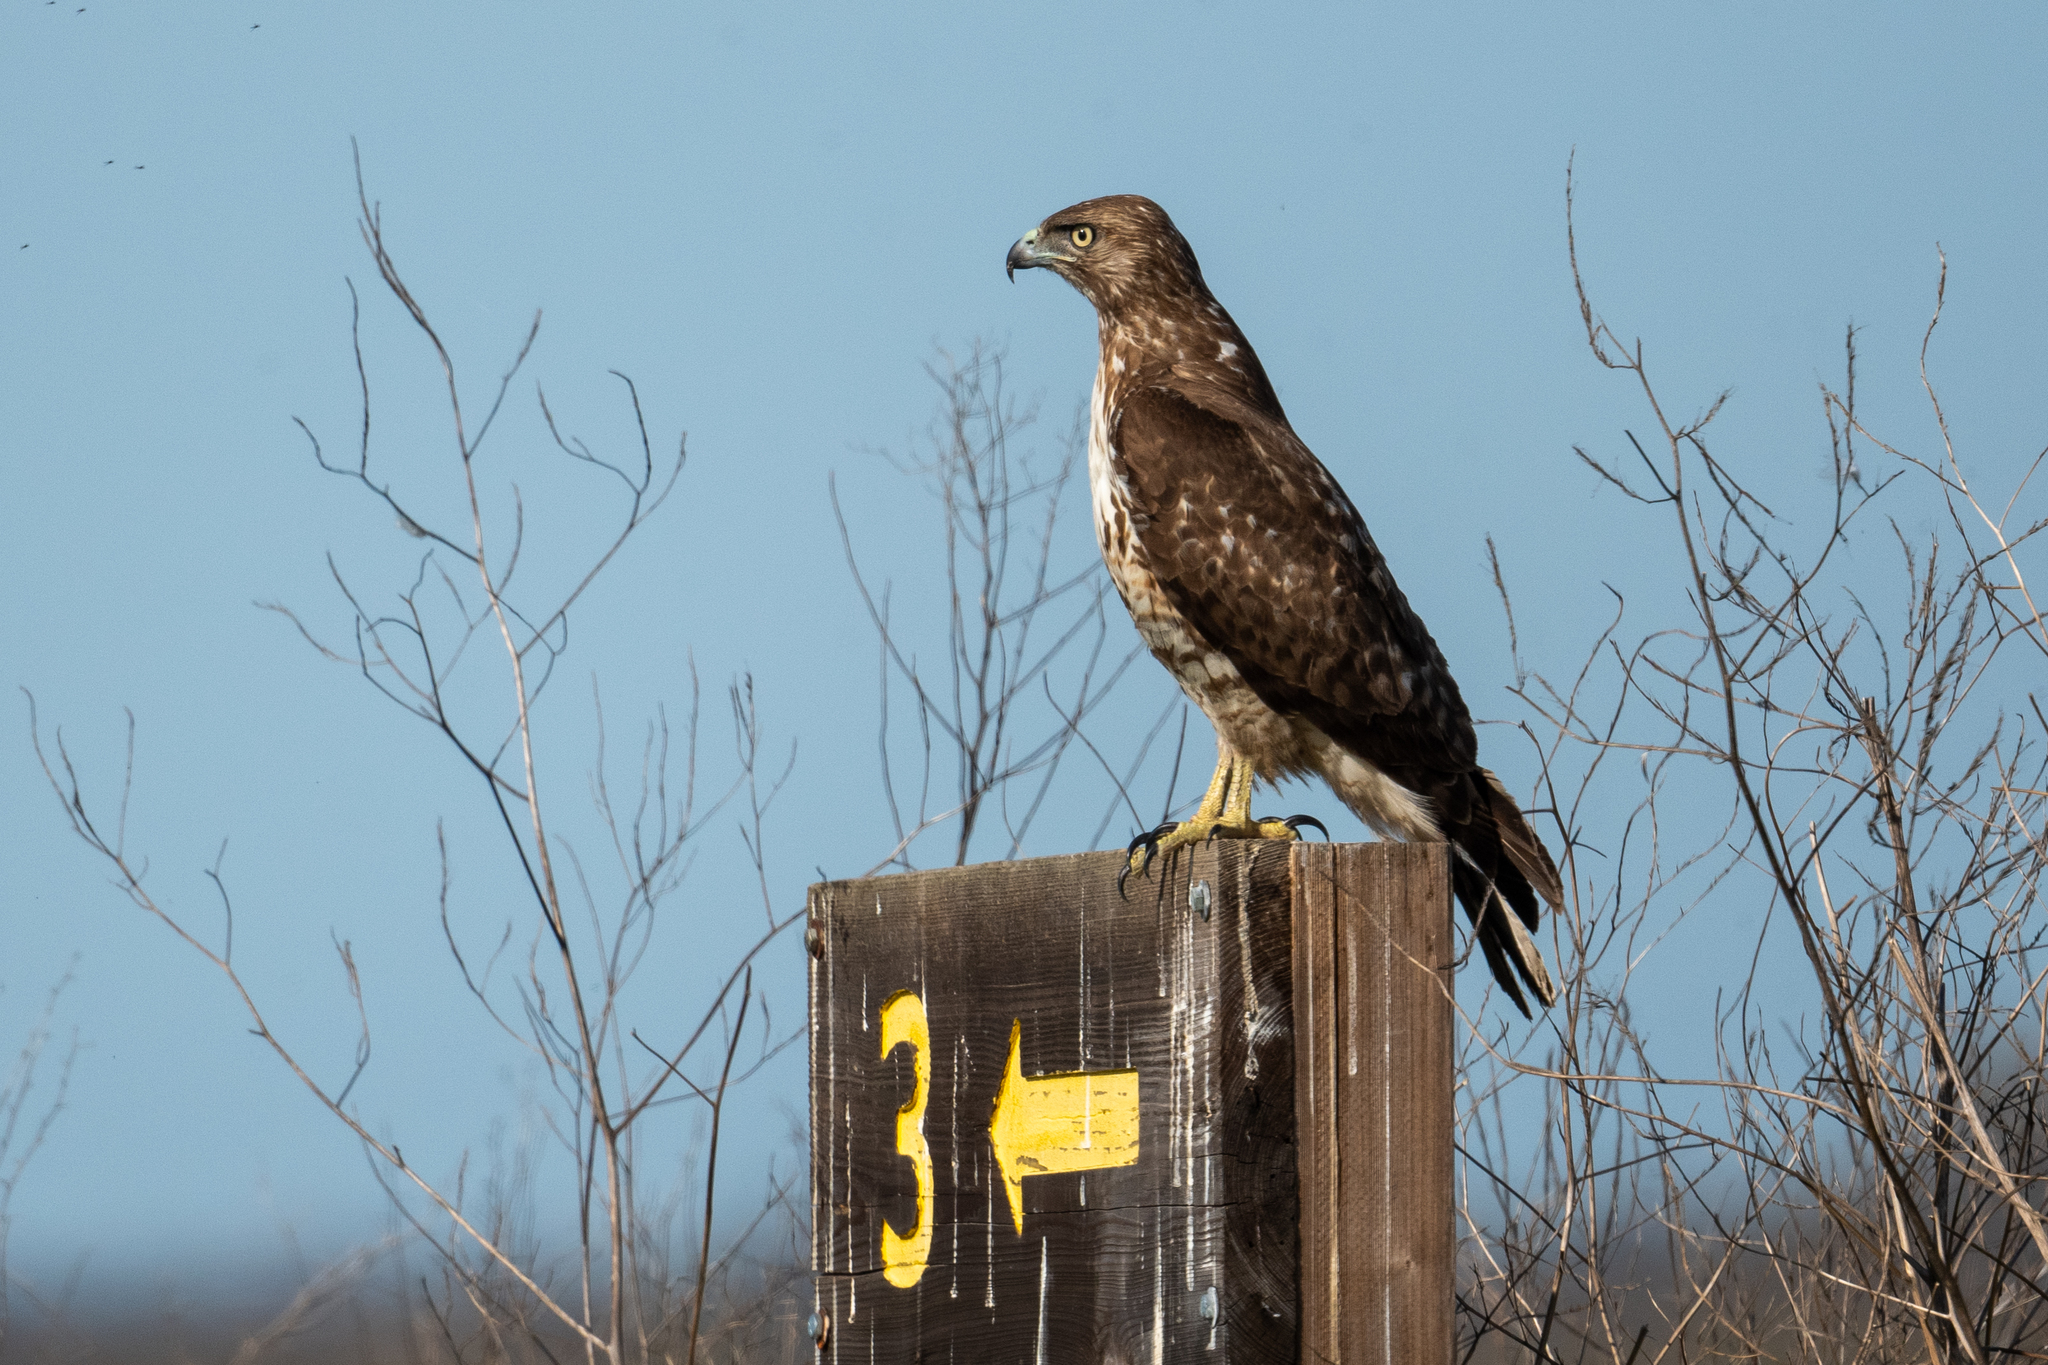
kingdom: Animalia
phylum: Chordata
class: Aves
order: Accipitriformes
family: Accipitridae
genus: Buteo
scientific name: Buteo jamaicensis
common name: Red-tailed hawk
